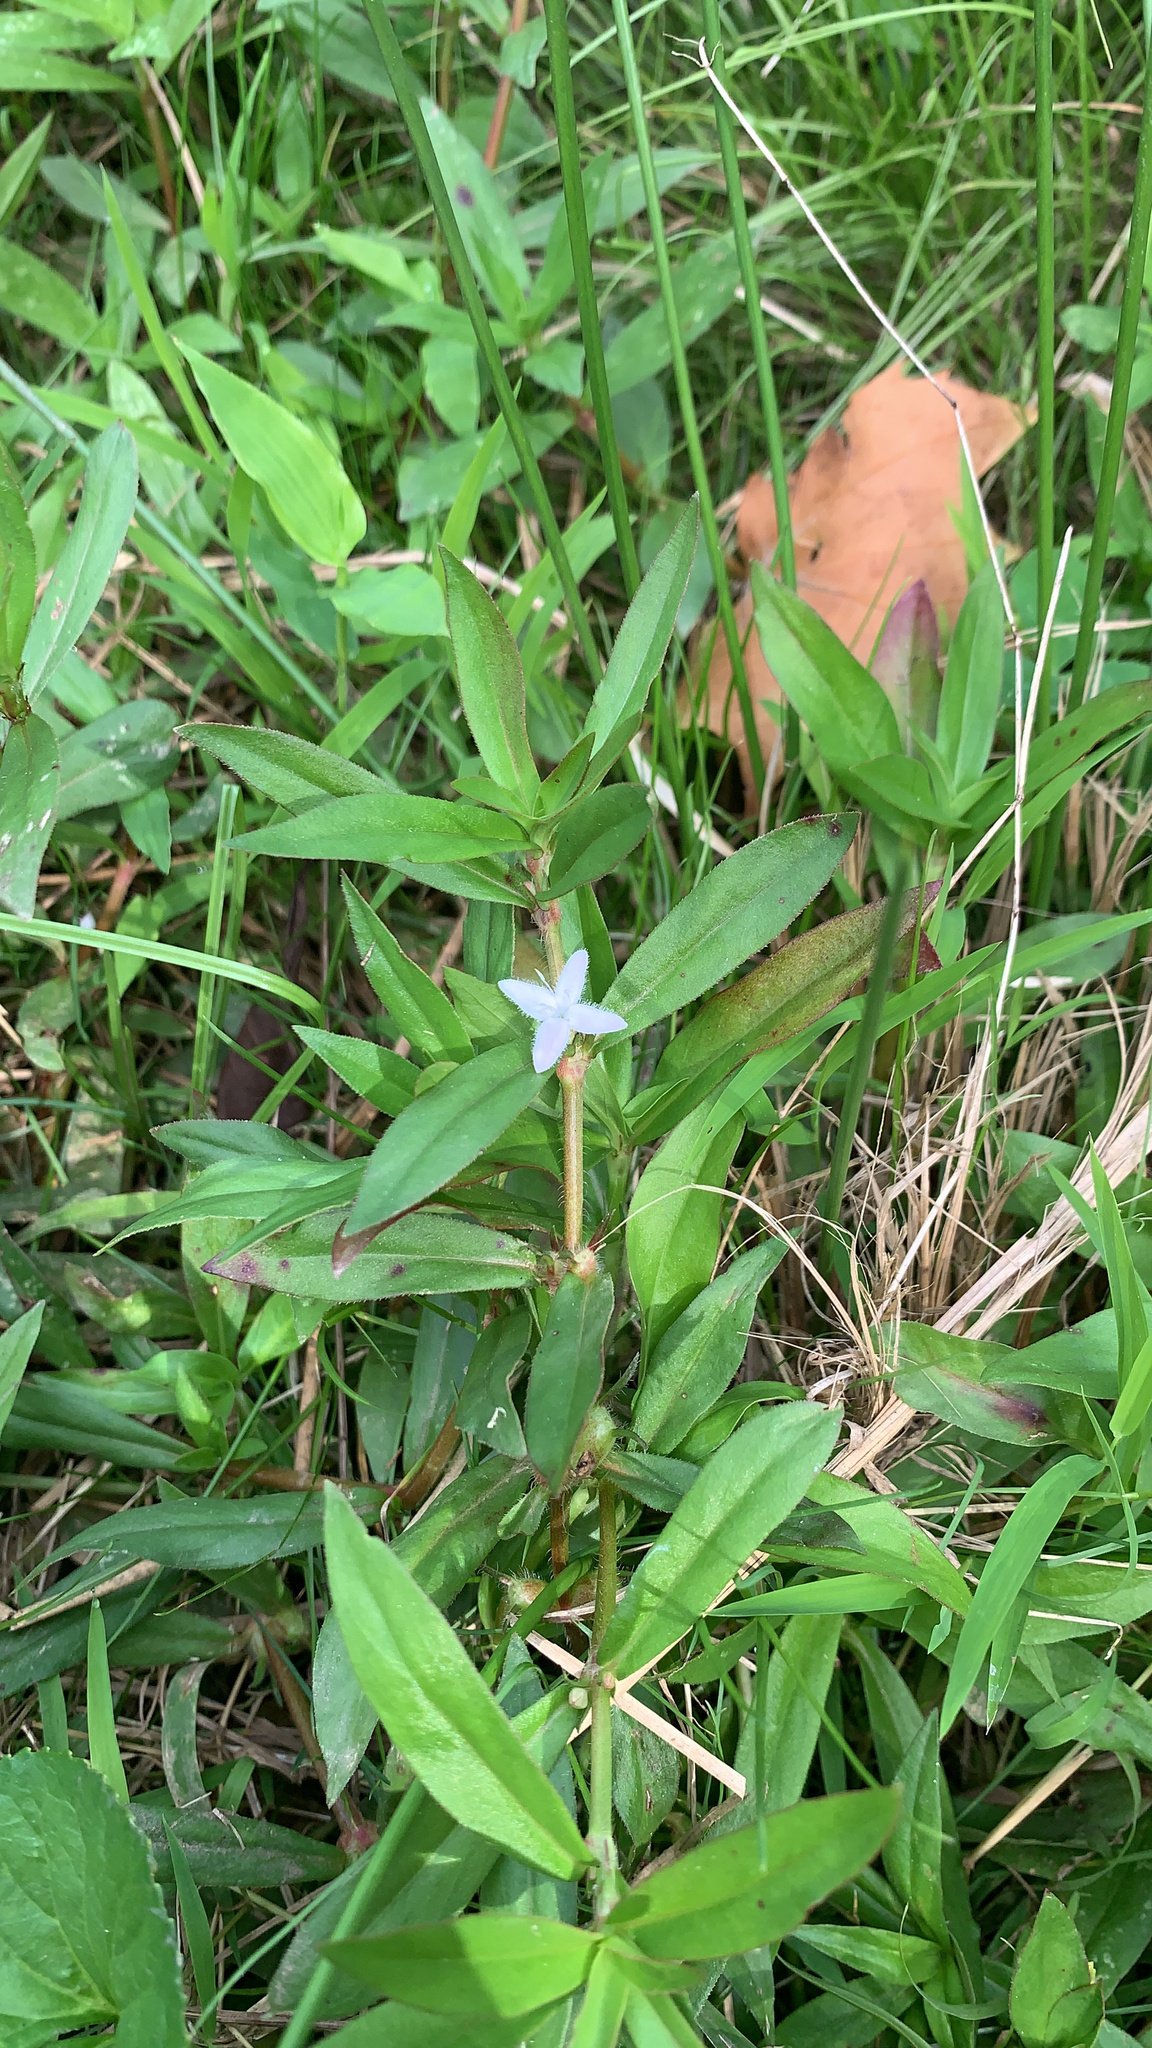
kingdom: Plantae
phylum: Tracheophyta
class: Magnoliopsida
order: Gentianales
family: Rubiaceae
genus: Diodia
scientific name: Diodia virginiana
